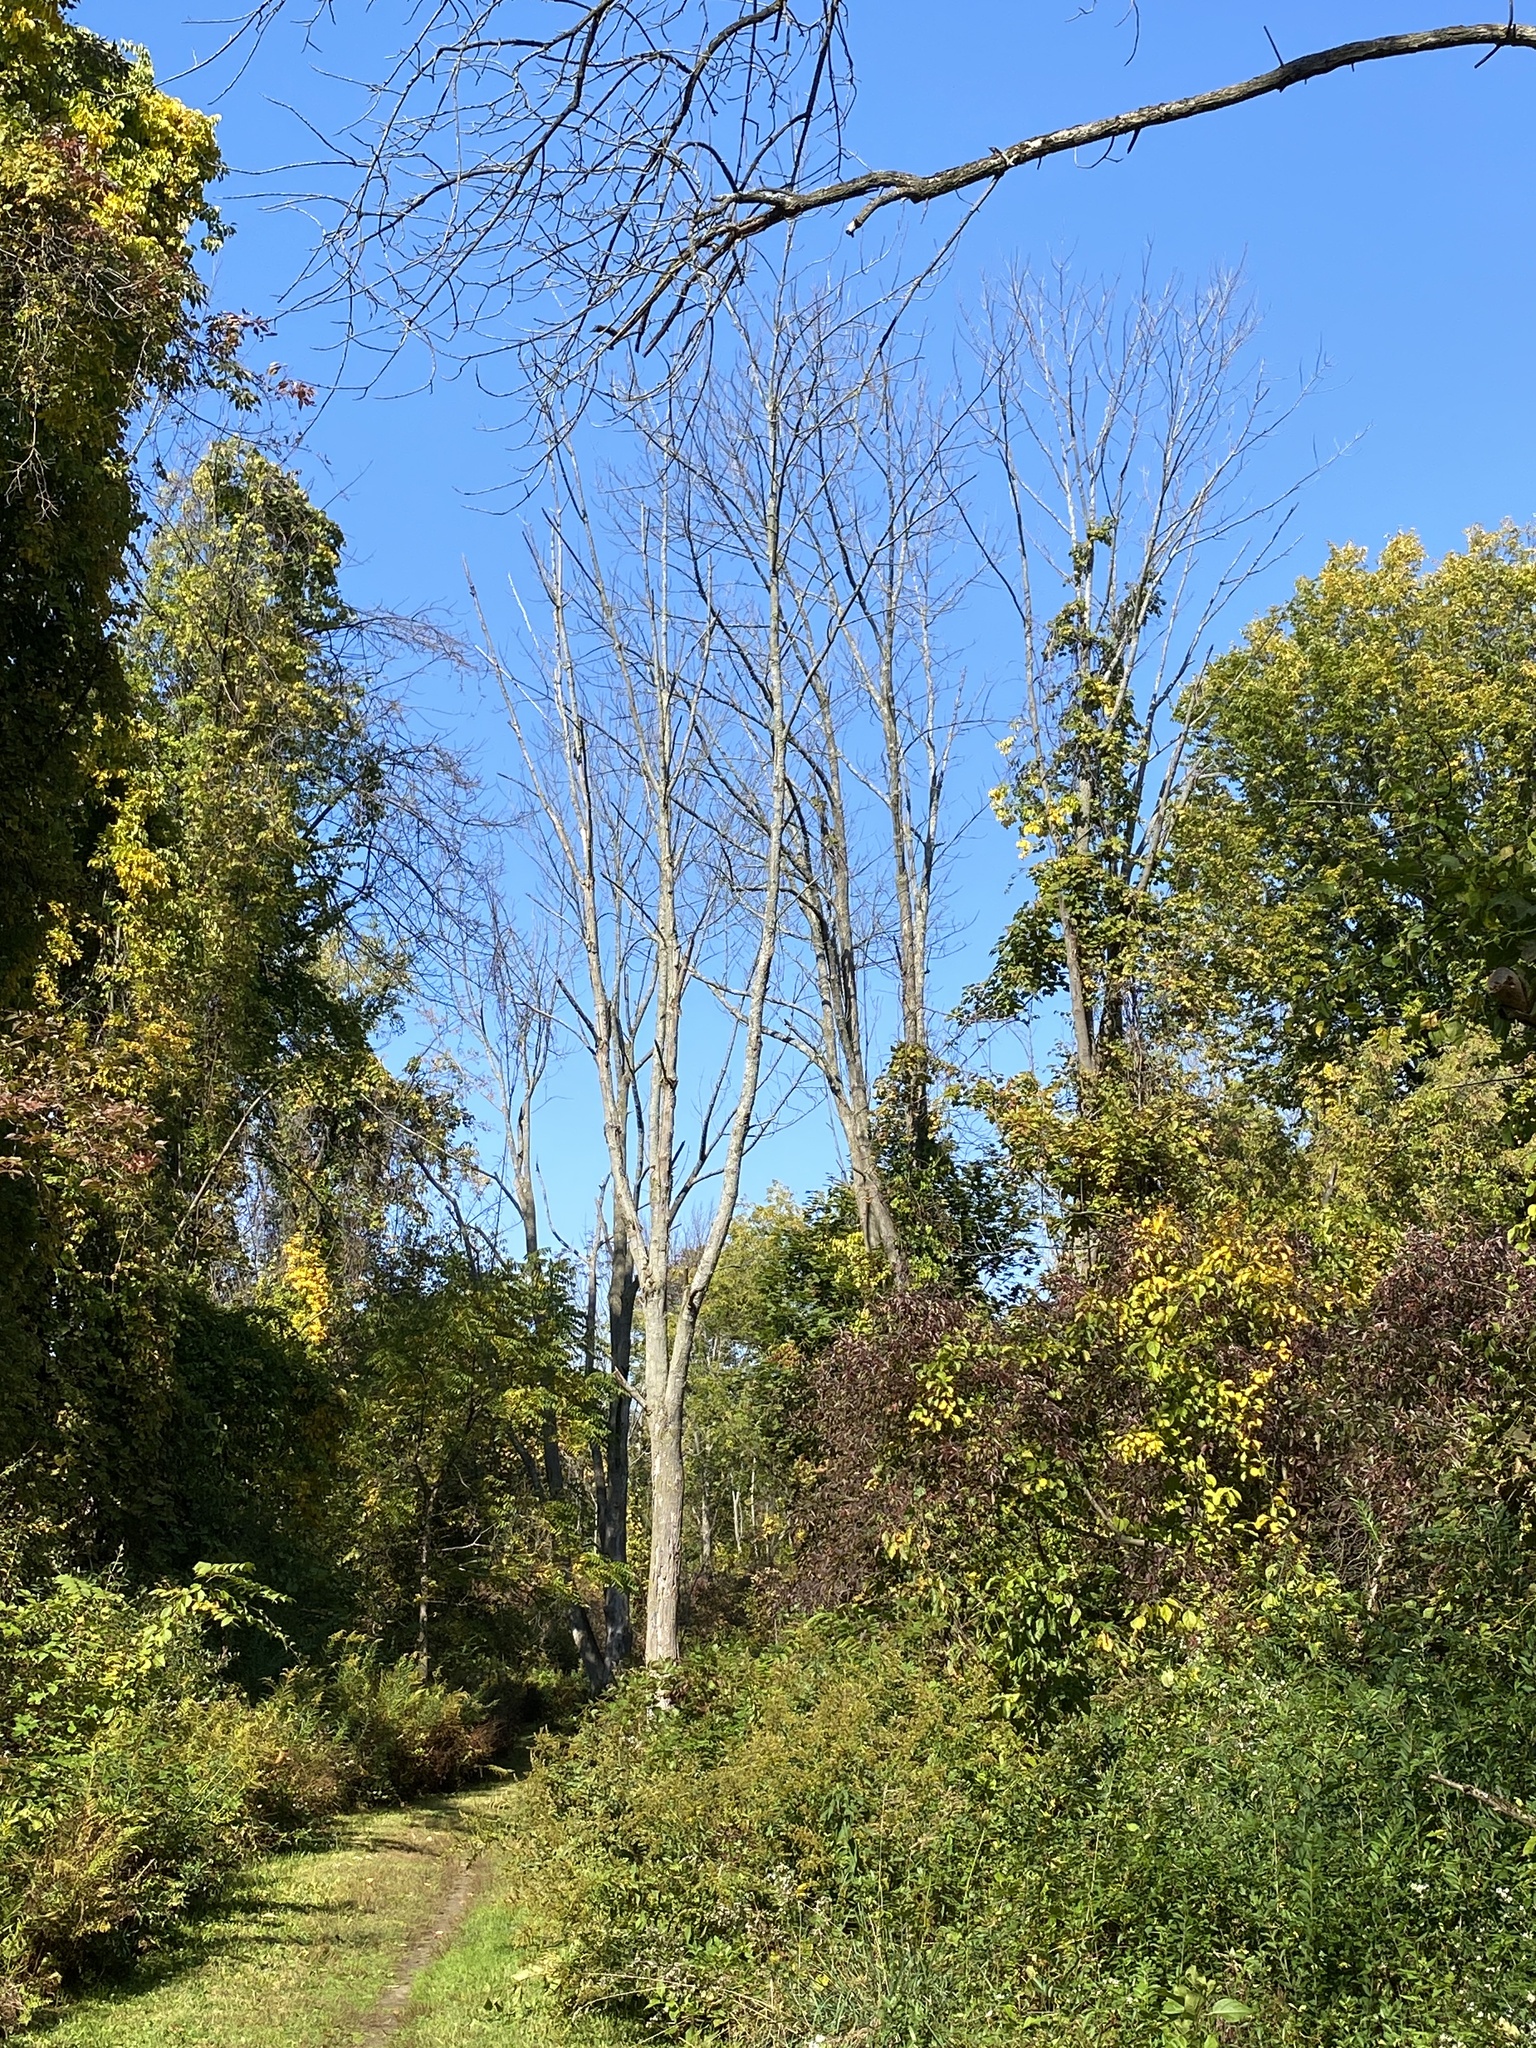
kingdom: Animalia
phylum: Arthropoda
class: Insecta
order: Coleoptera
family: Buprestidae
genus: Agrilus
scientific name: Agrilus planipennis
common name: Emerald ash borer
